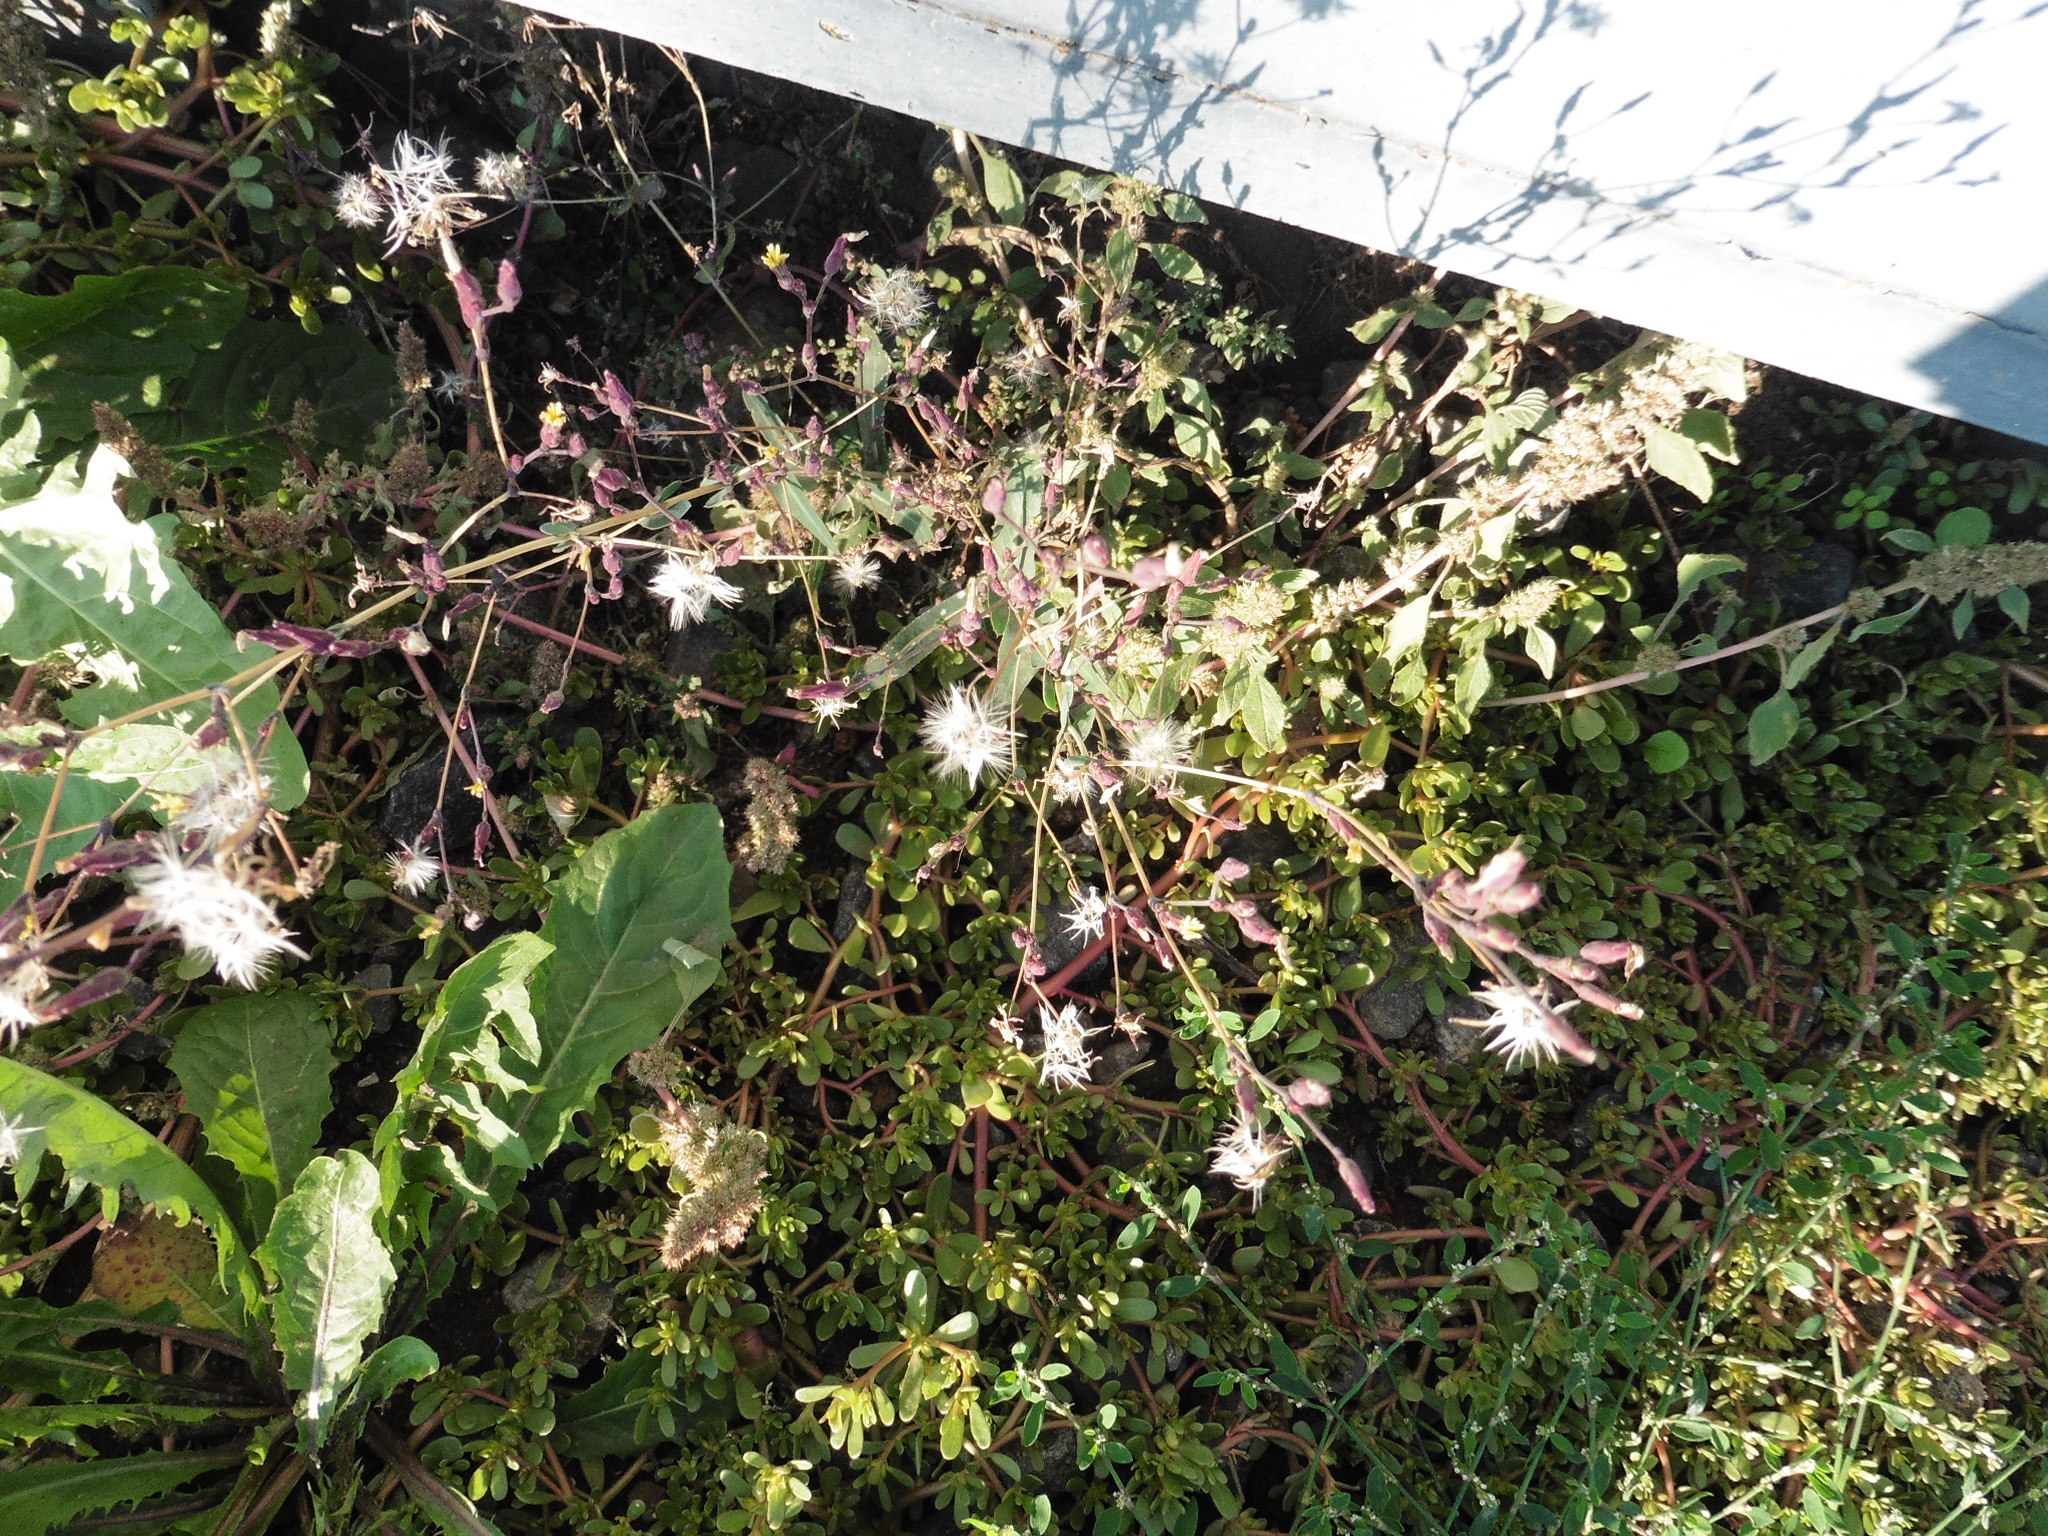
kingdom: Plantae
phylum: Tracheophyta
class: Magnoliopsida
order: Asterales
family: Asteraceae
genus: Lactuca
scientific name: Lactuca serriola
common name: Prickly lettuce
